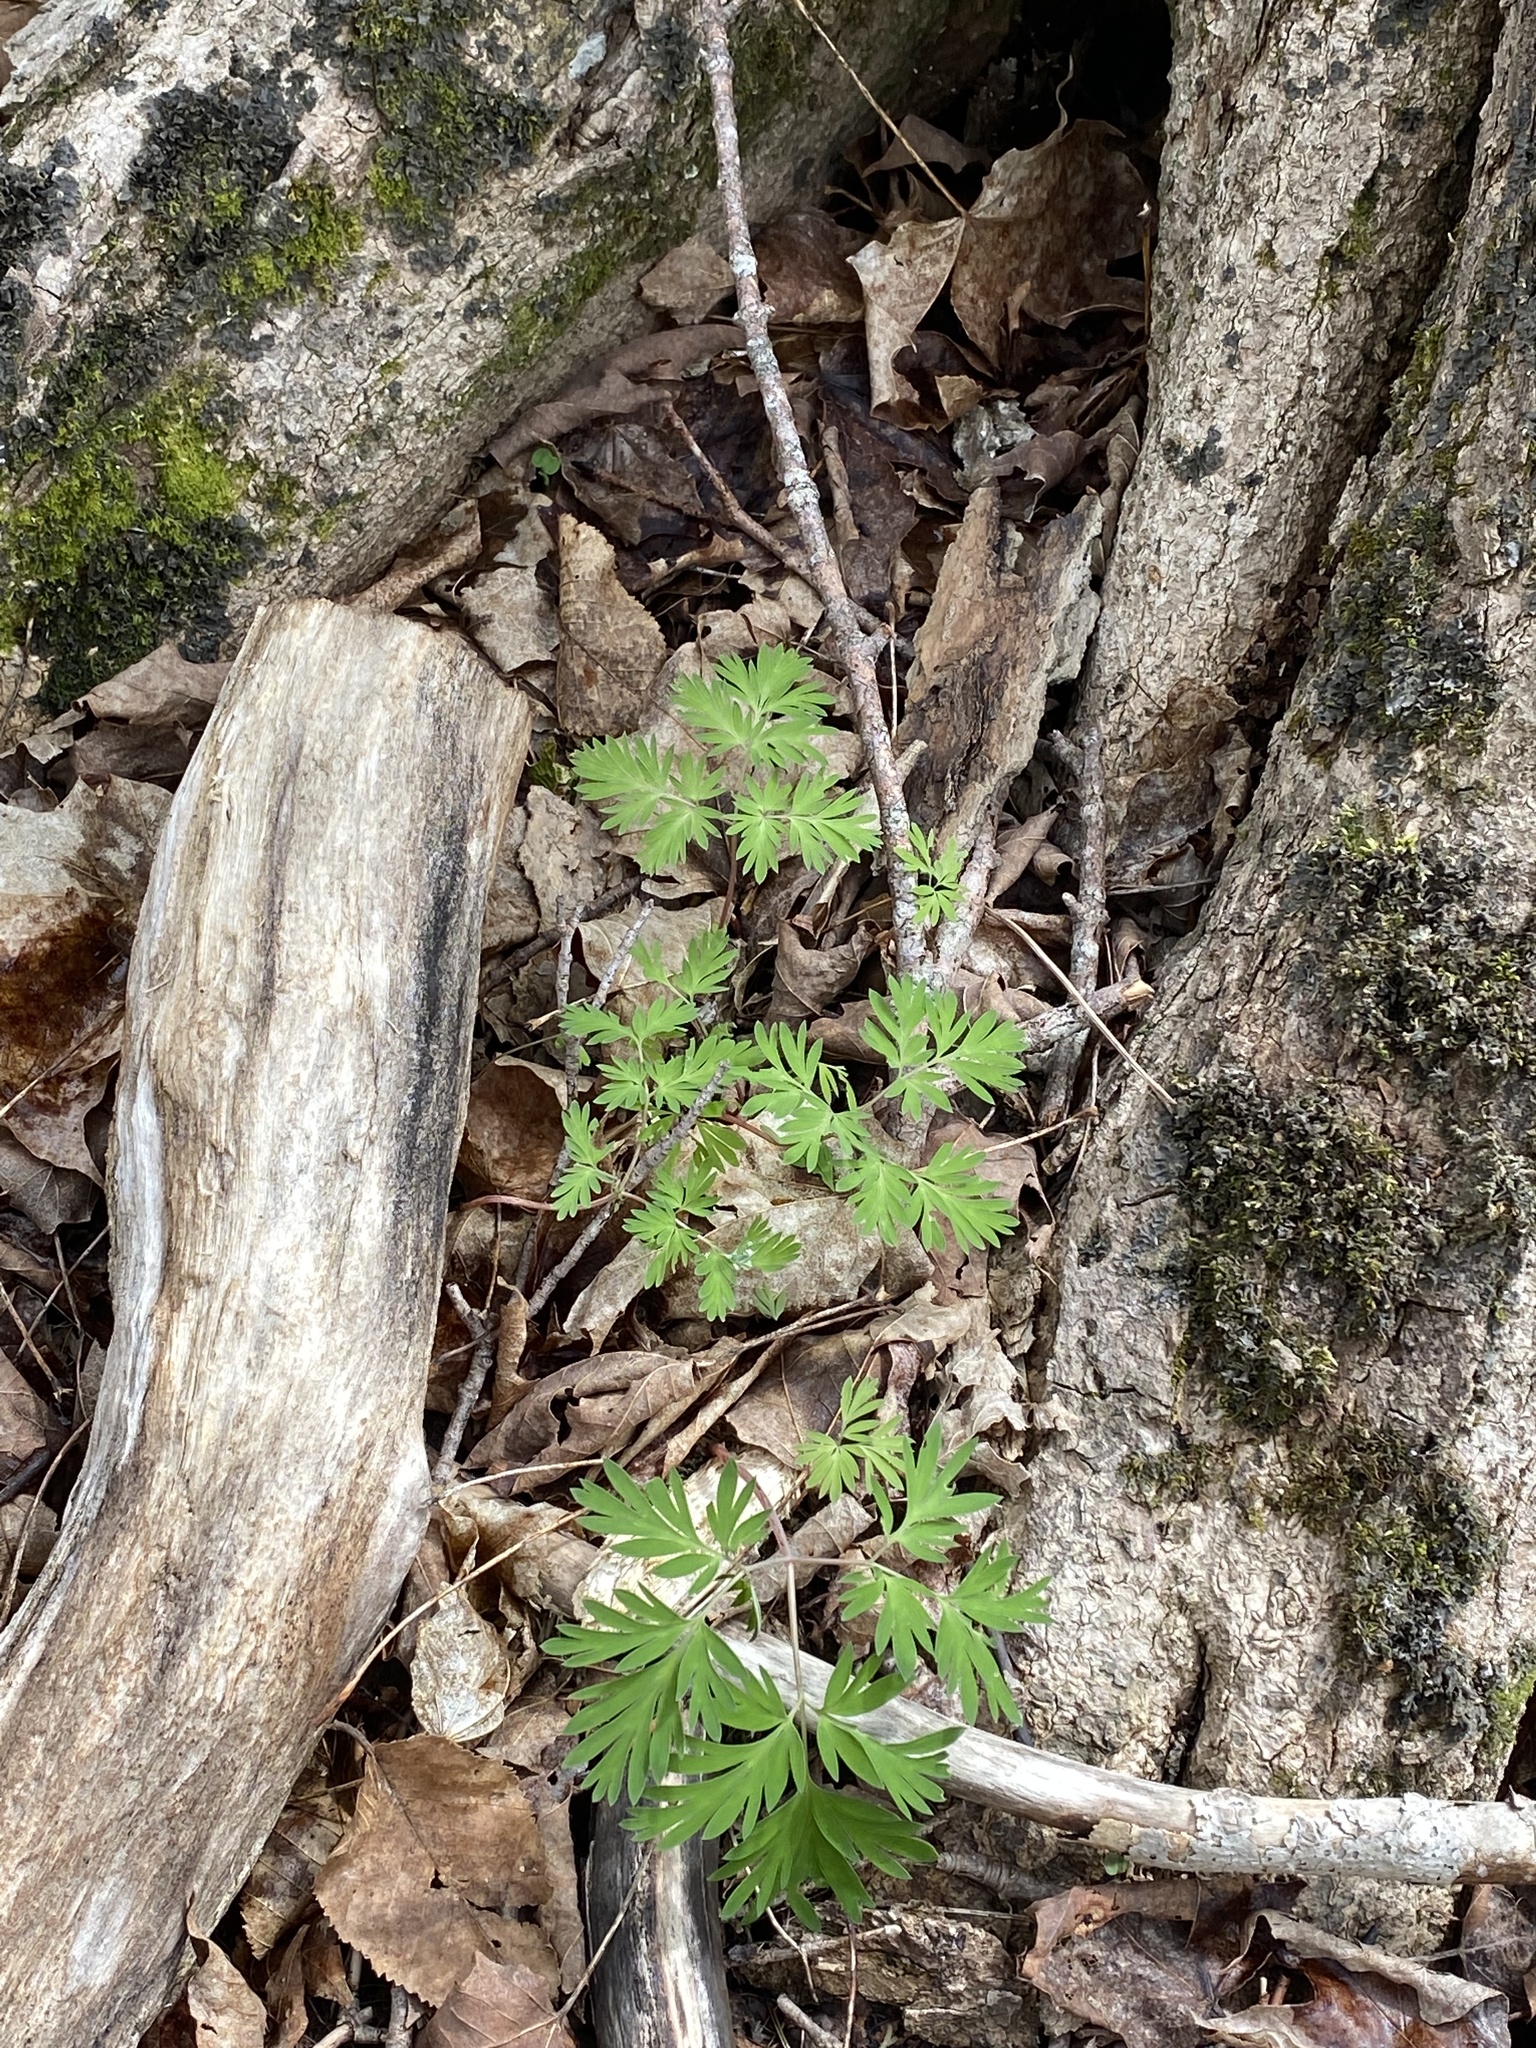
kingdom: Plantae
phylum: Tracheophyta
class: Magnoliopsida
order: Ranunculales
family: Papaveraceae
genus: Dicentra
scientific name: Dicentra cucullaria
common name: Dutchman's breeches
